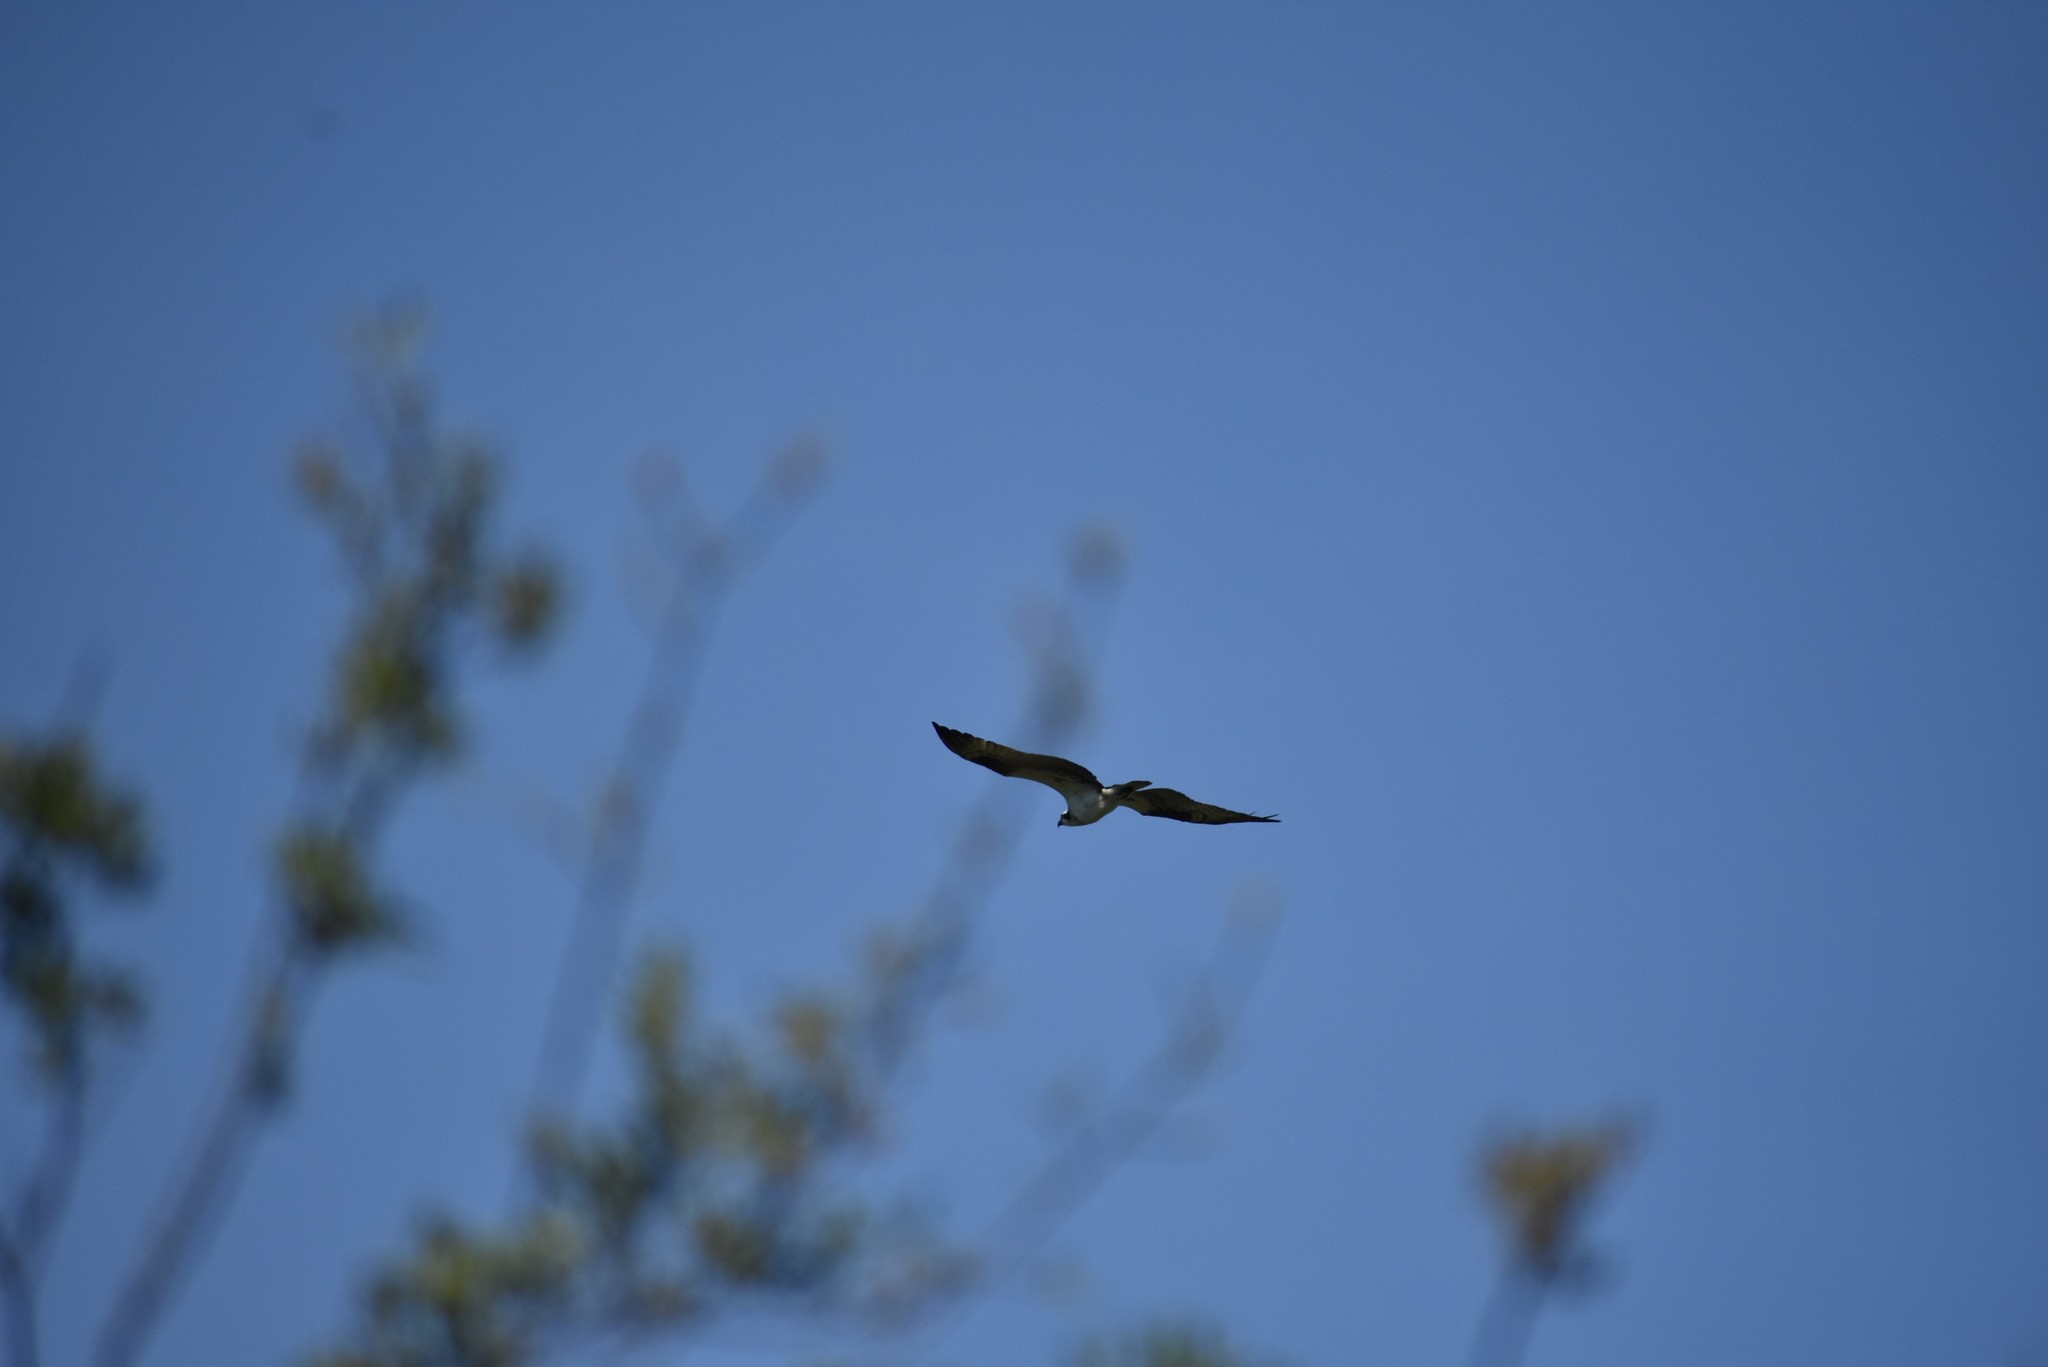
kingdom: Animalia
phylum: Chordata
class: Aves
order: Accipitriformes
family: Pandionidae
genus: Pandion
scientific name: Pandion haliaetus
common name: Osprey
